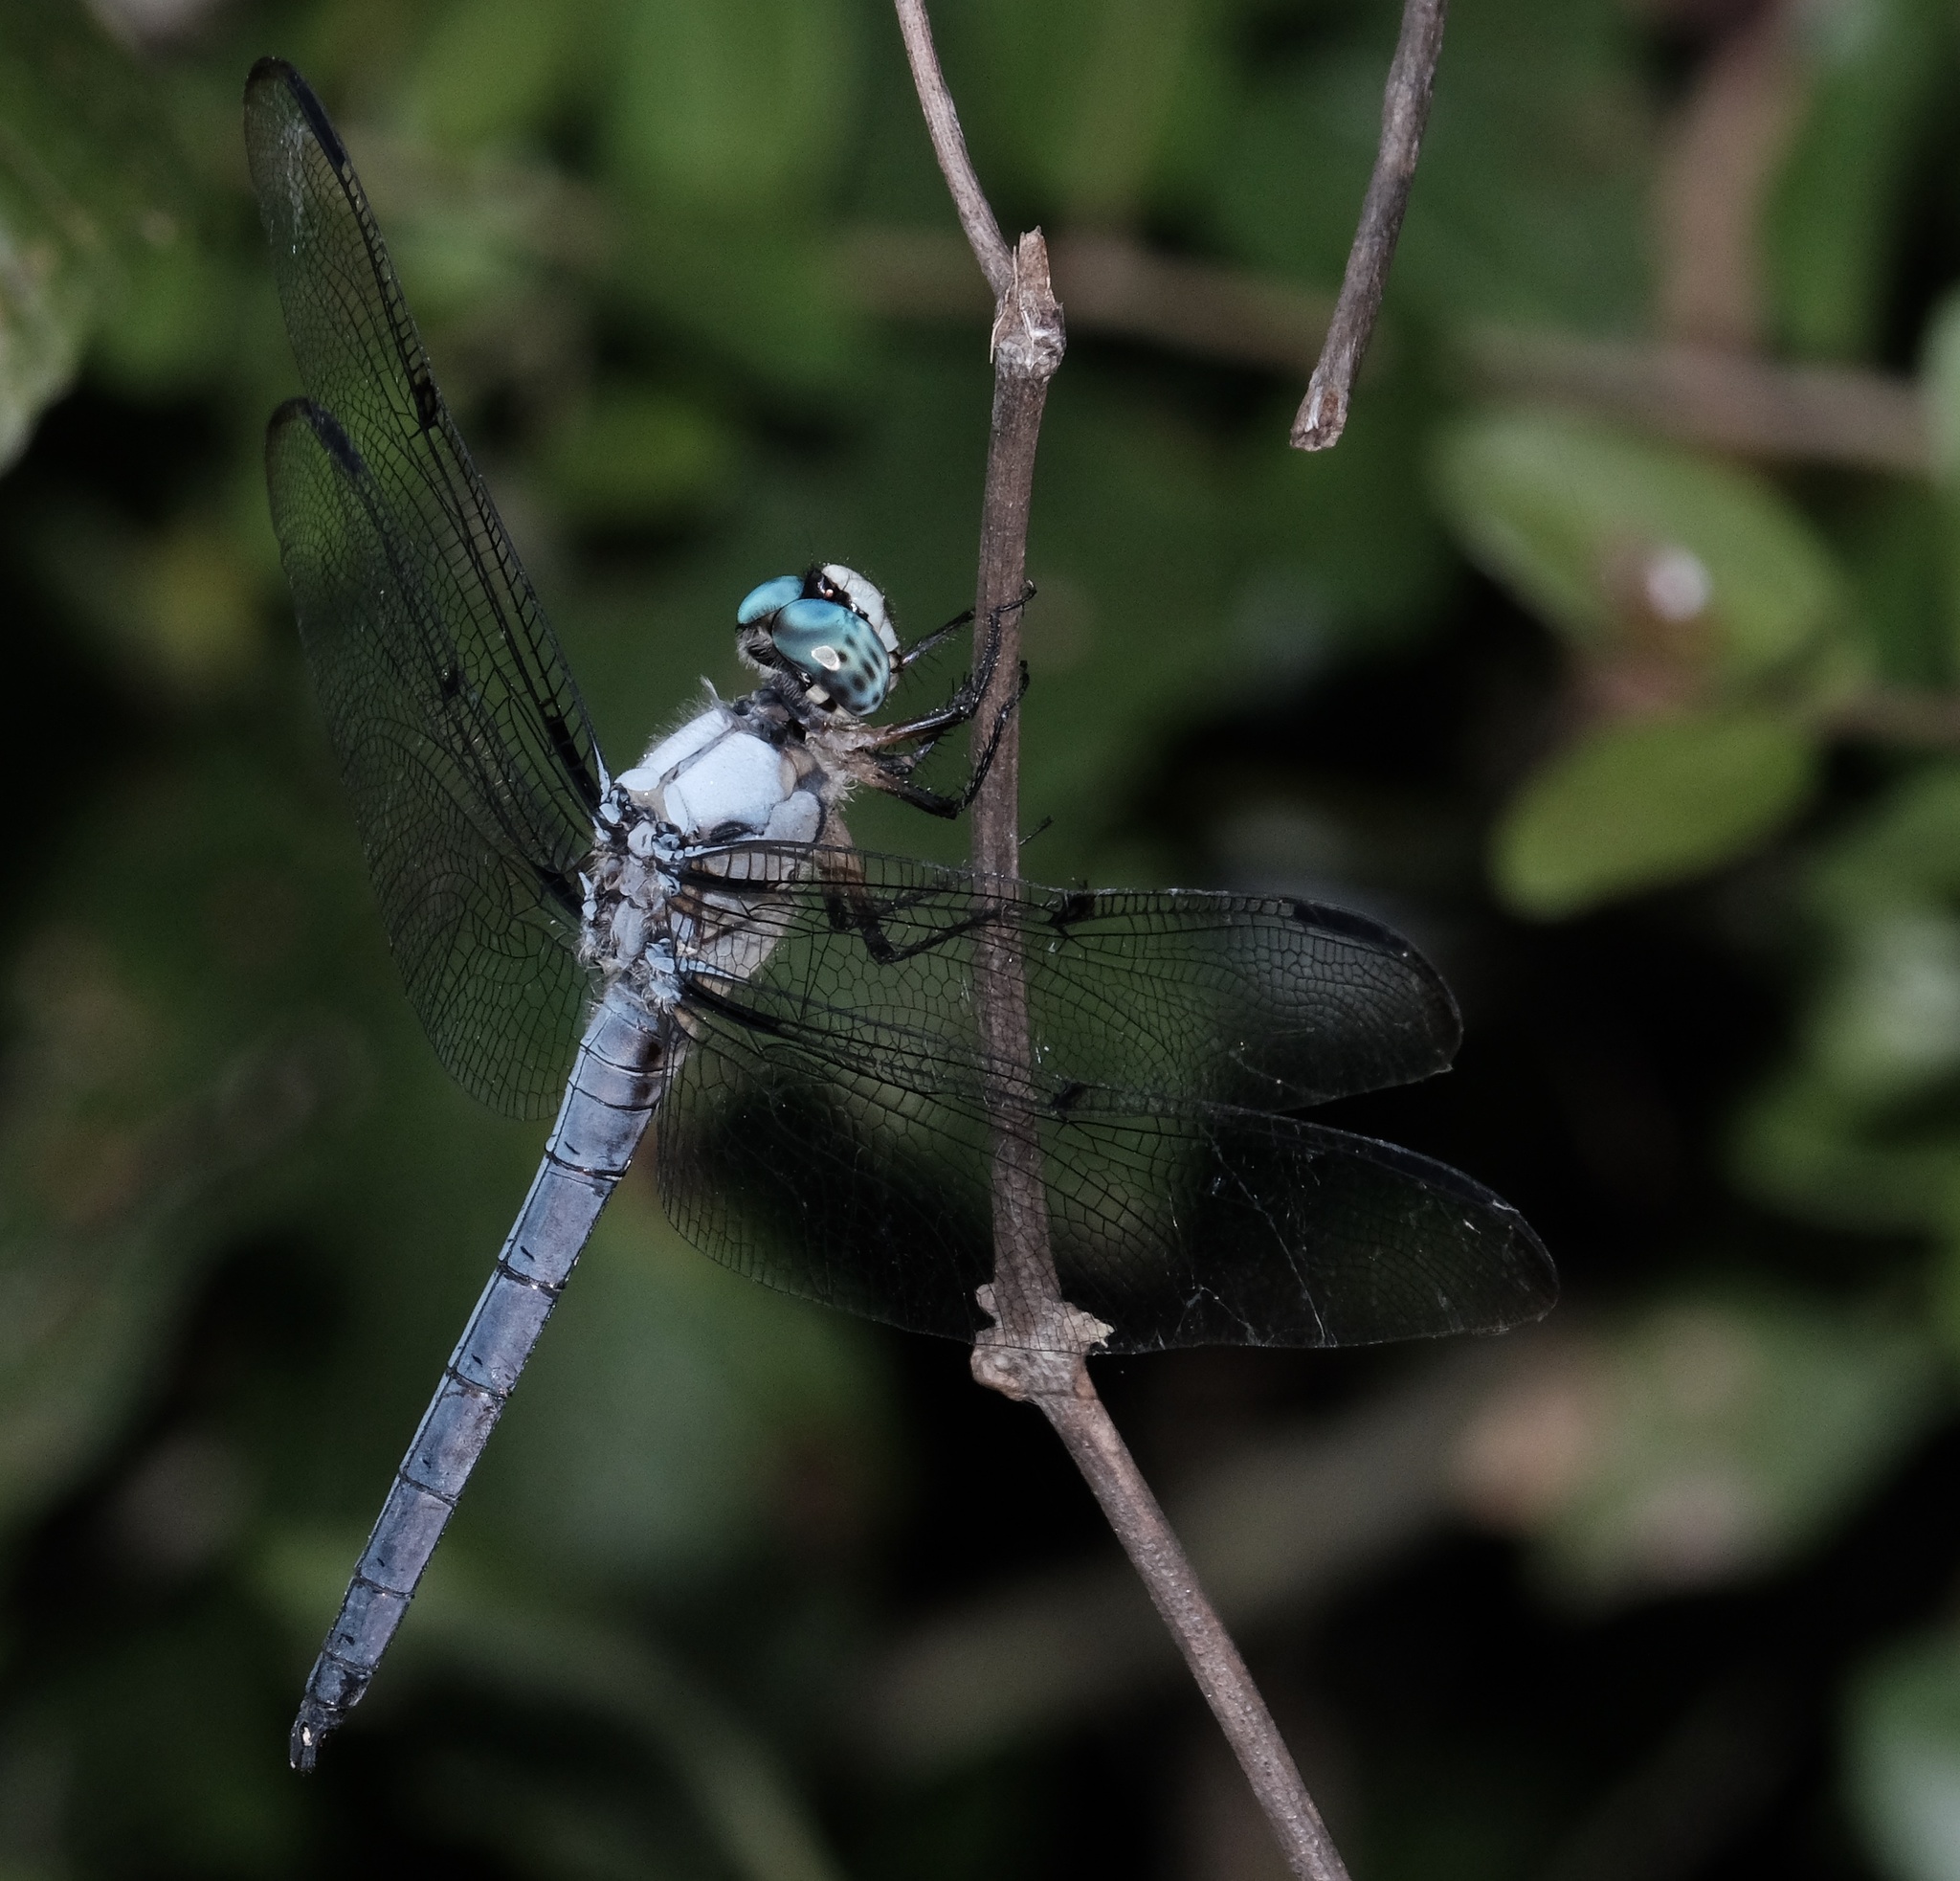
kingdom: Animalia
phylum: Arthropoda
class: Insecta
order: Odonata
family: Libellulidae
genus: Libellula
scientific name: Libellula vibrans
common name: Great blue skimmer
